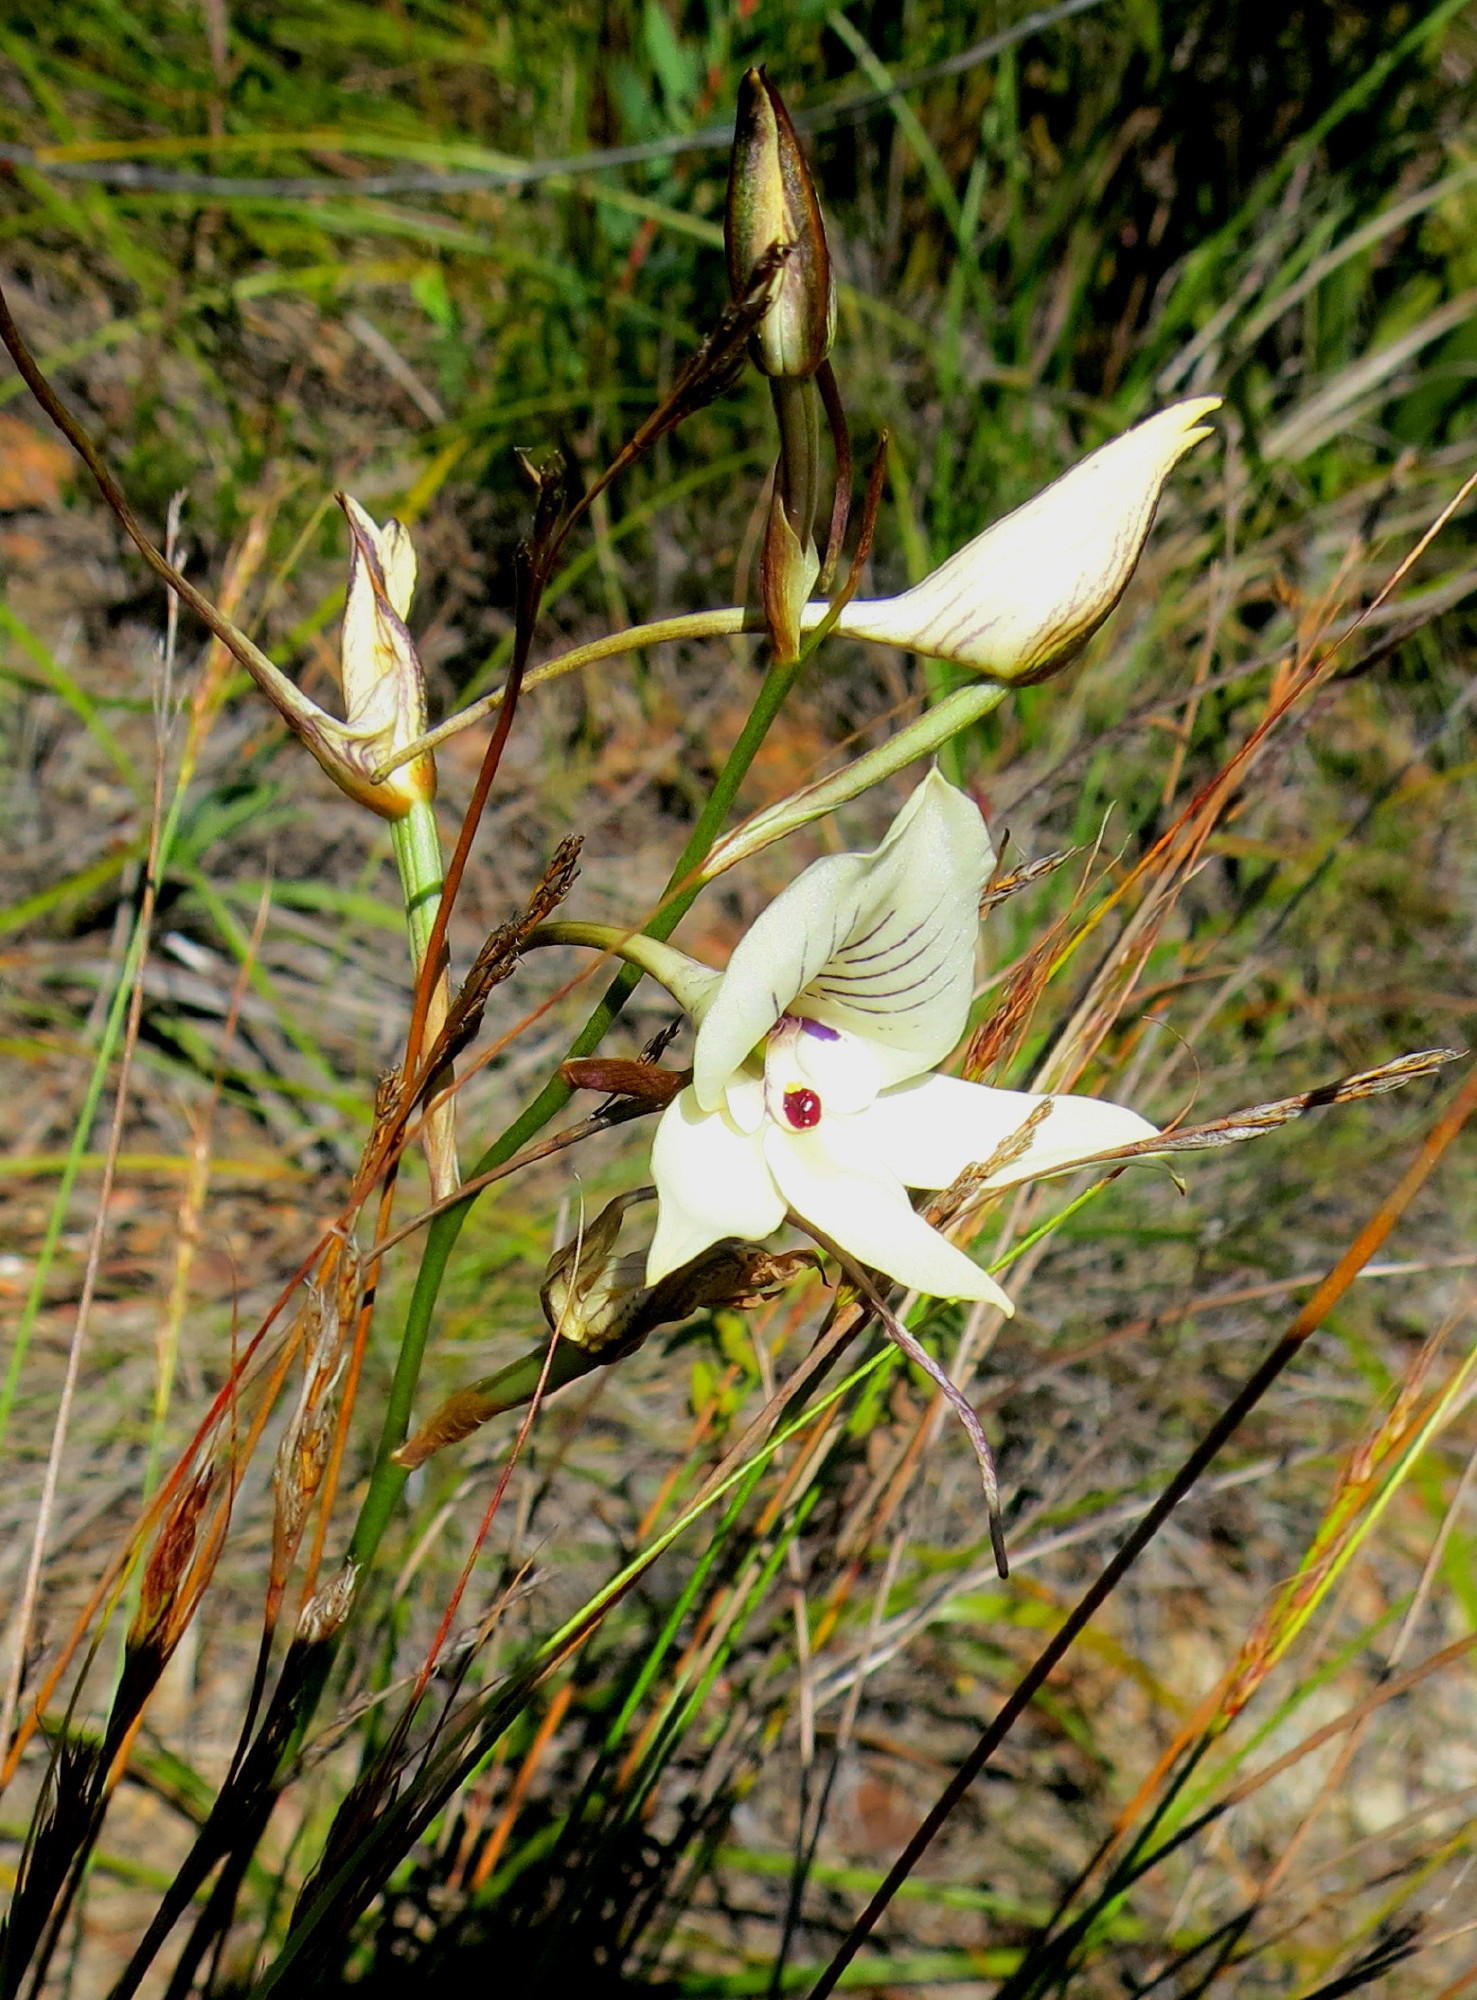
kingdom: Plantae
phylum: Tracheophyta
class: Liliopsida
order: Asparagales
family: Orchidaceae
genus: Disa
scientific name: Disa schlechteriana
